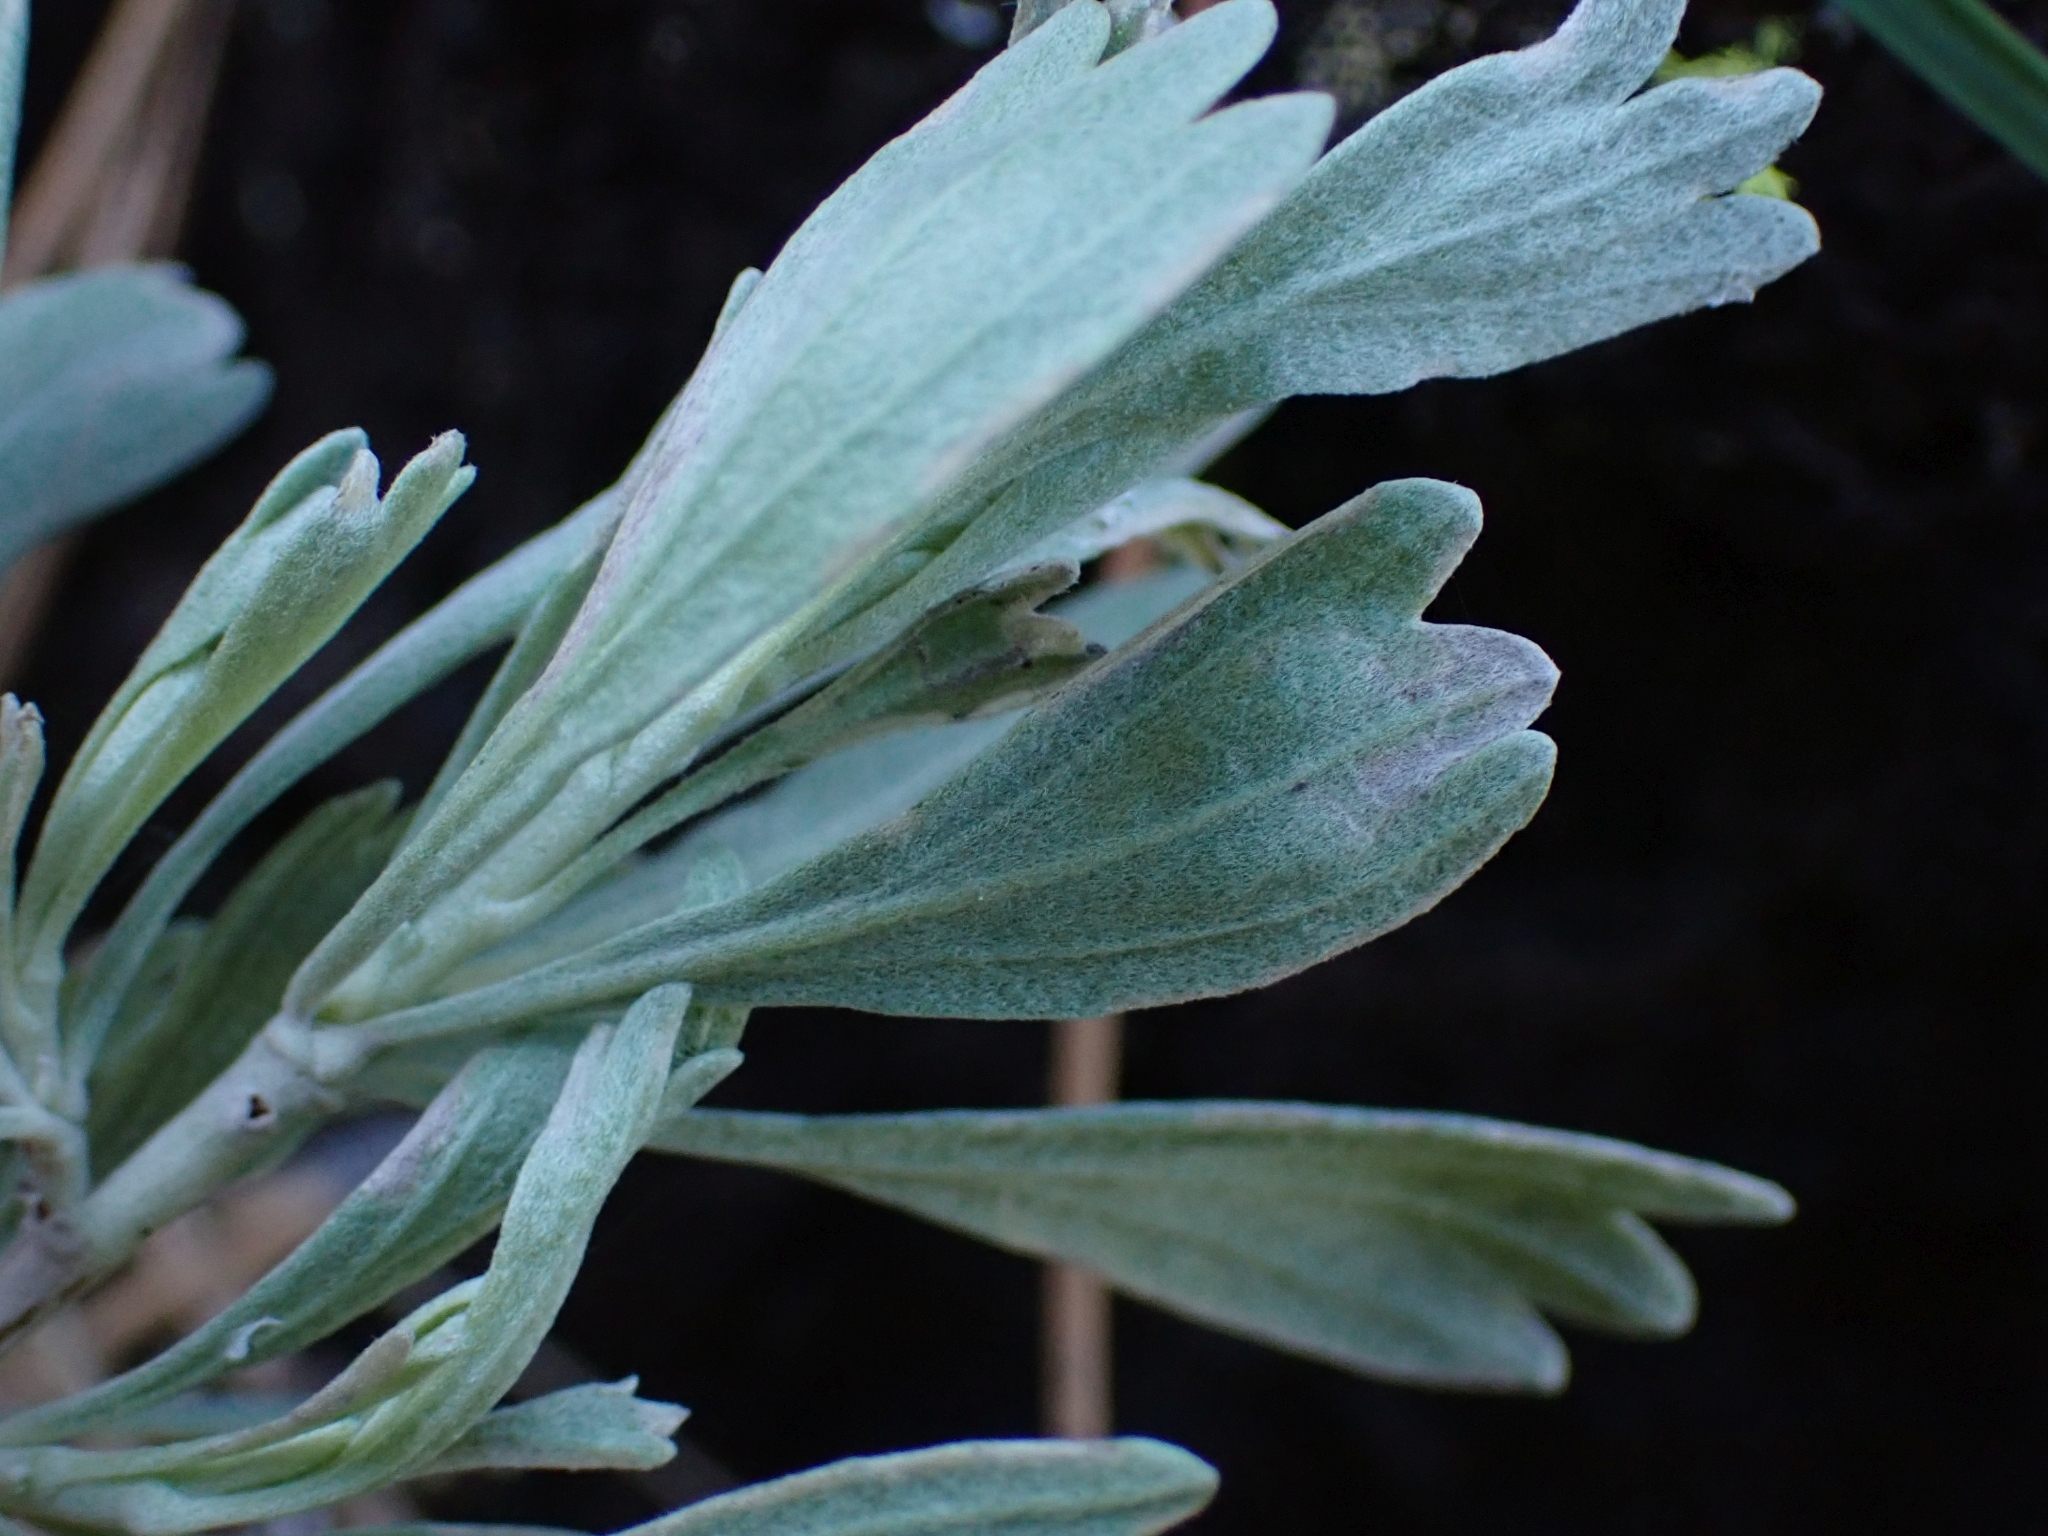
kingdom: Plantae
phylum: Tracheophyta
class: Magnoliopsida
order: Asterales
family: Asteraceae
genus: Artemisia
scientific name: Artemisia tridentata
